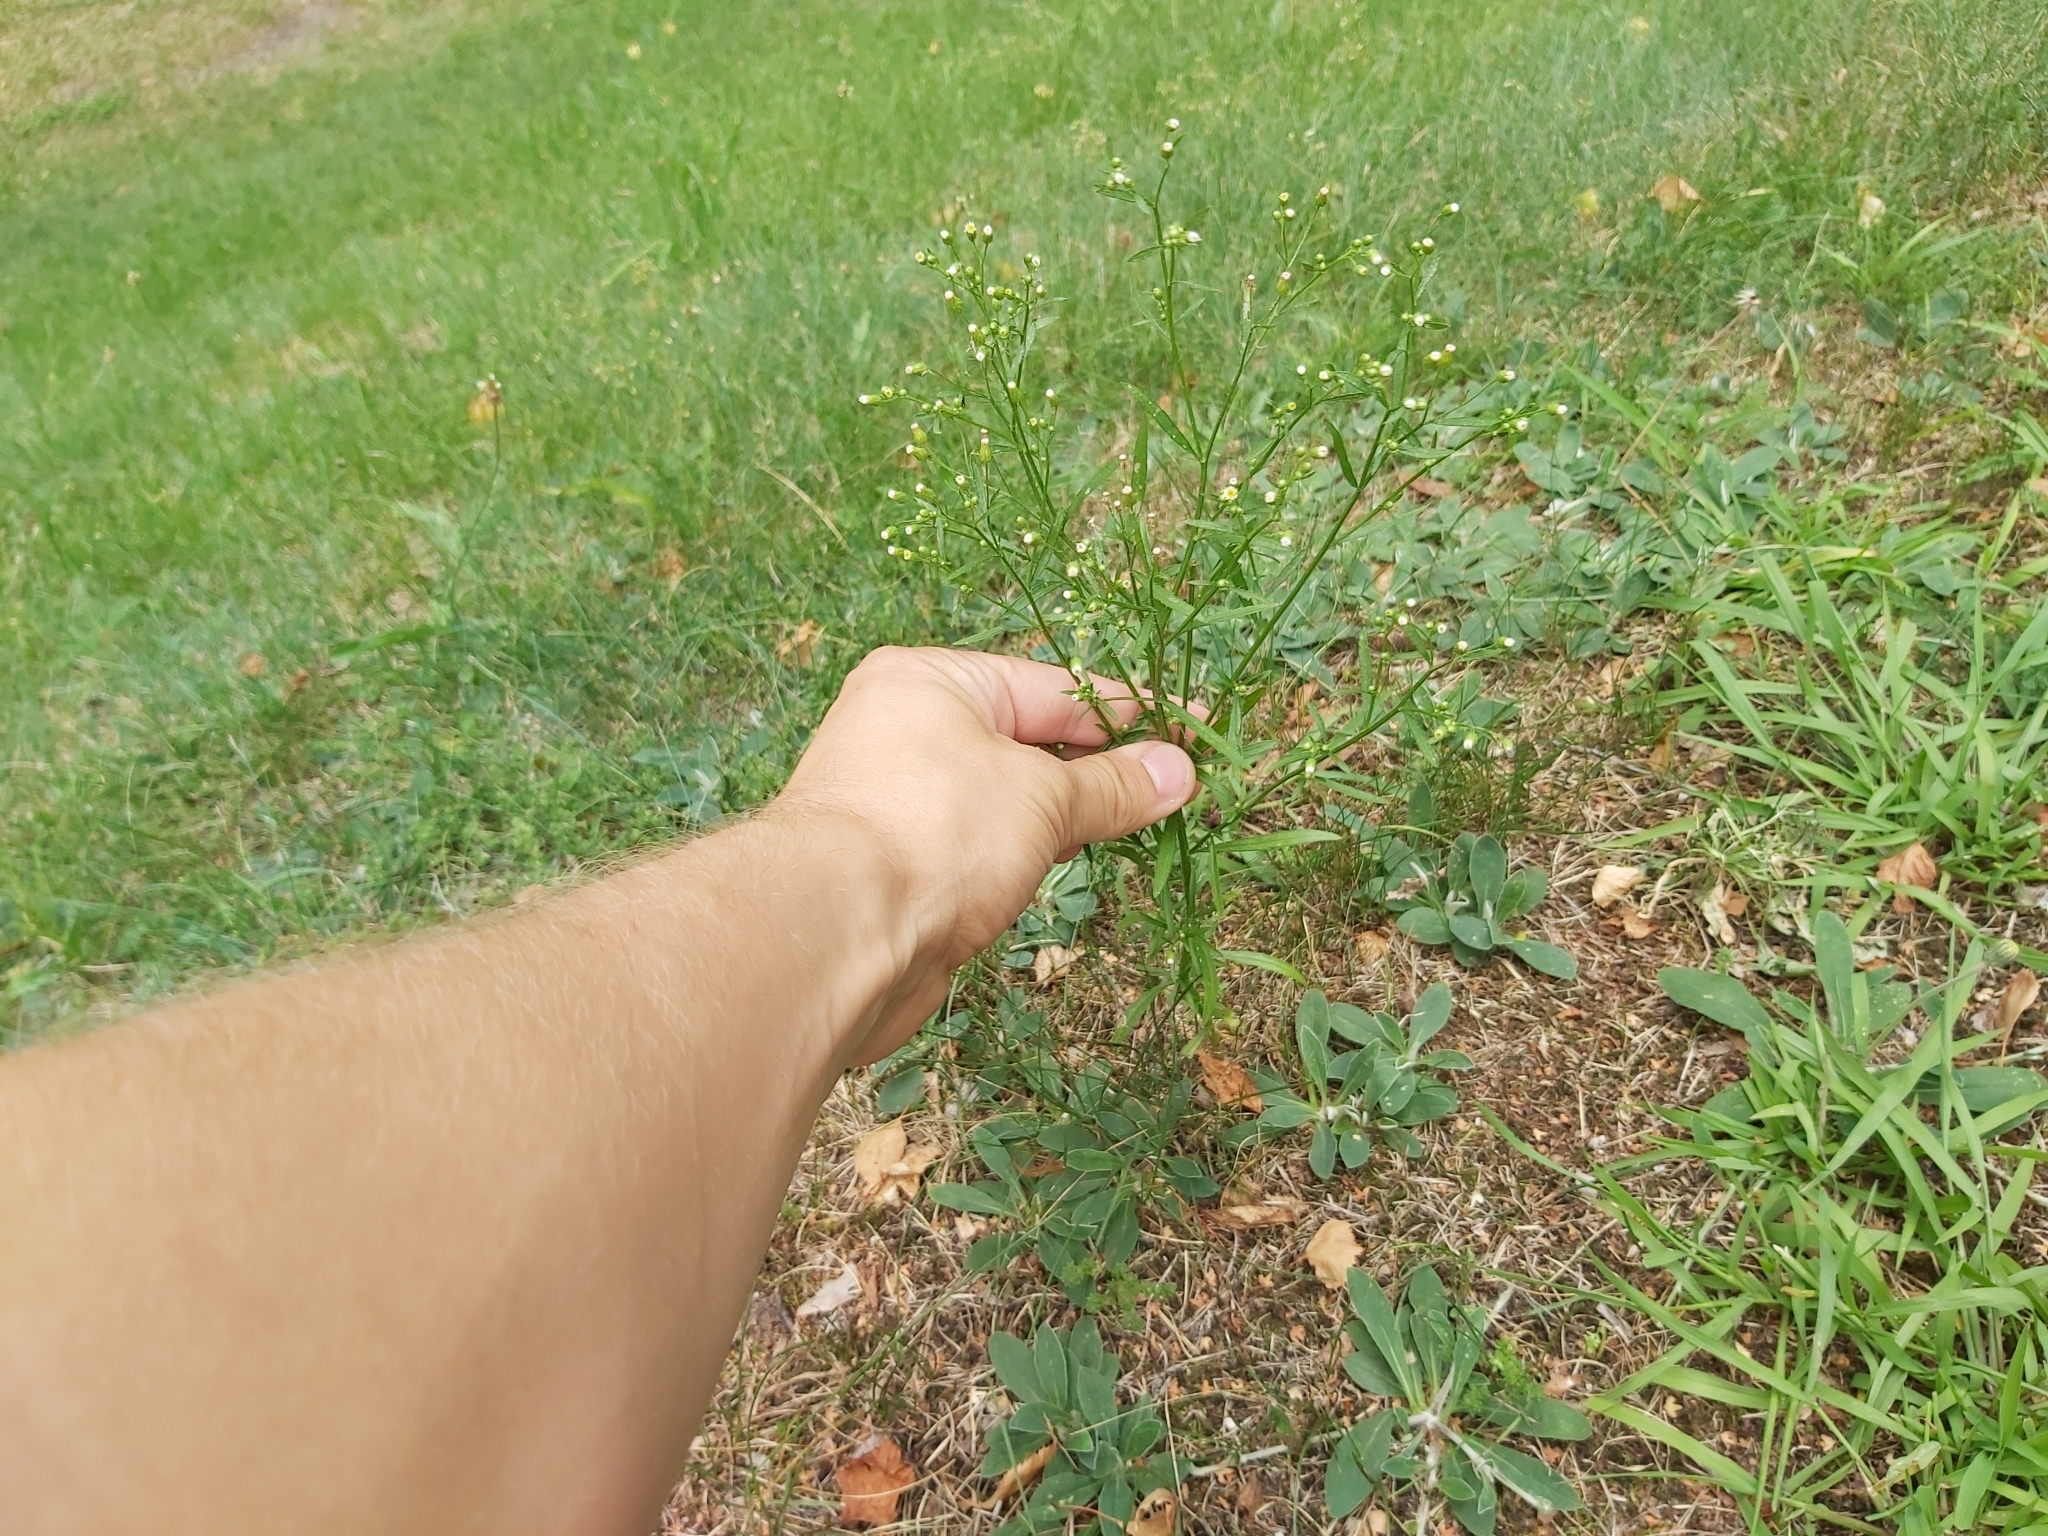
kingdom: Plantae
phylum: Tracheophyta
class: Magnoliopsida
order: Asterales
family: Asteraceae
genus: Erigeron
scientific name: Erigeron canadensis
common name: Canadian fleabane
